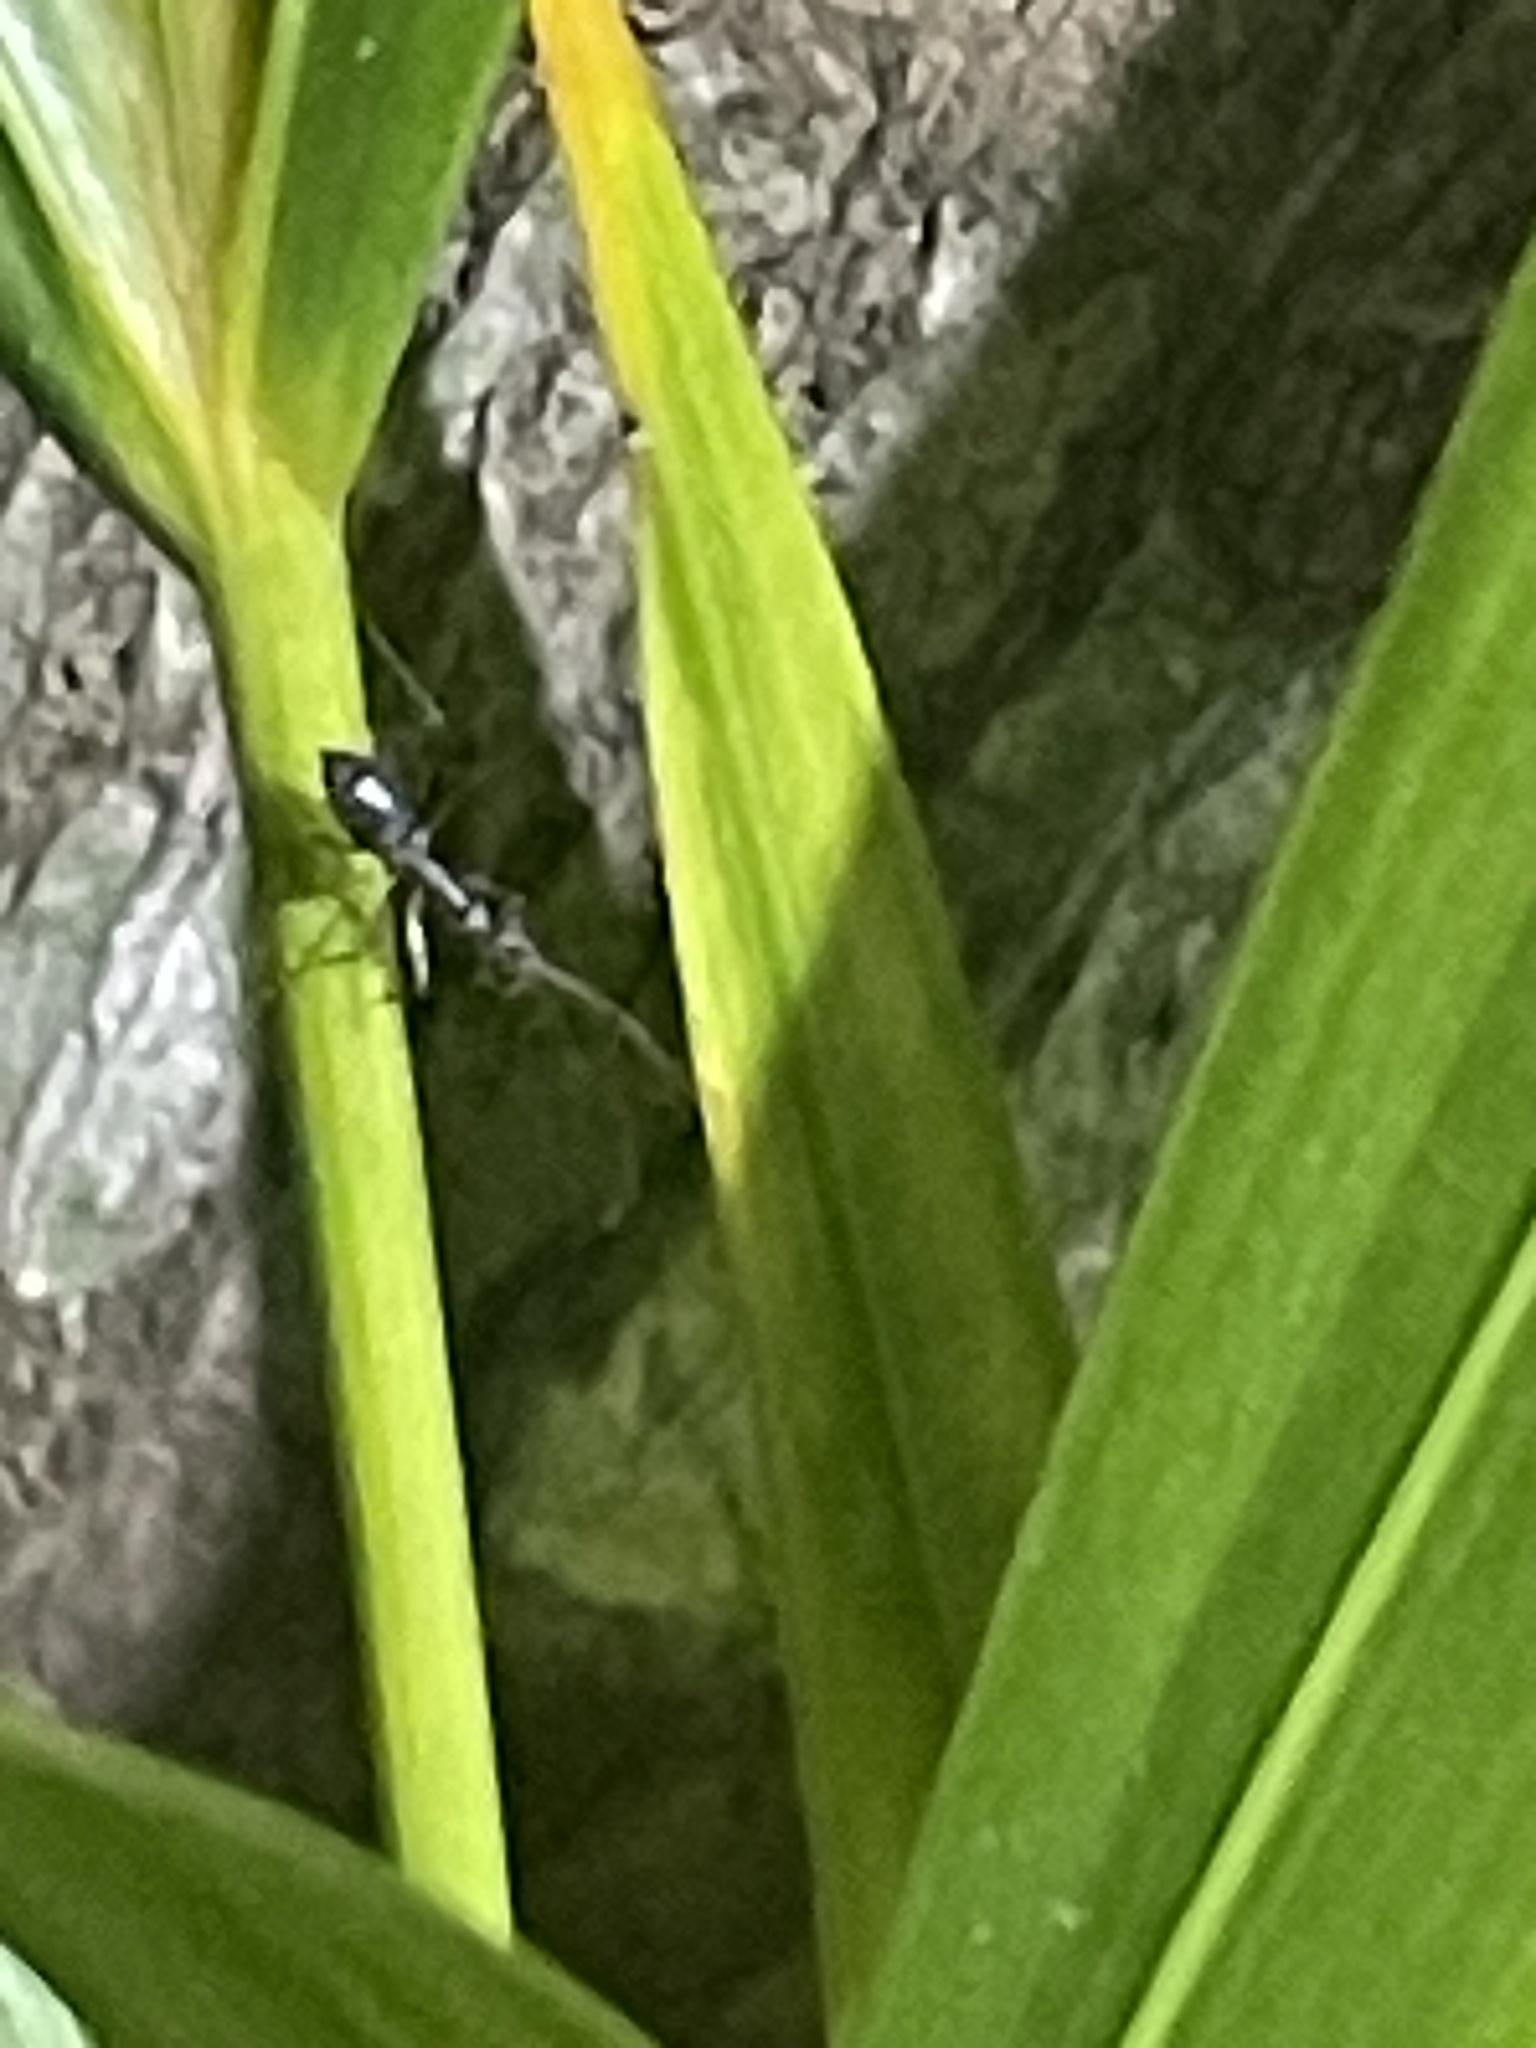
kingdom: Animalia
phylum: Arthropoda
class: Insecta
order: Hymenoptera
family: Formicidae
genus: Paratrechina
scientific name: Paratrechina longicornis
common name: Longhorned crazy ant
